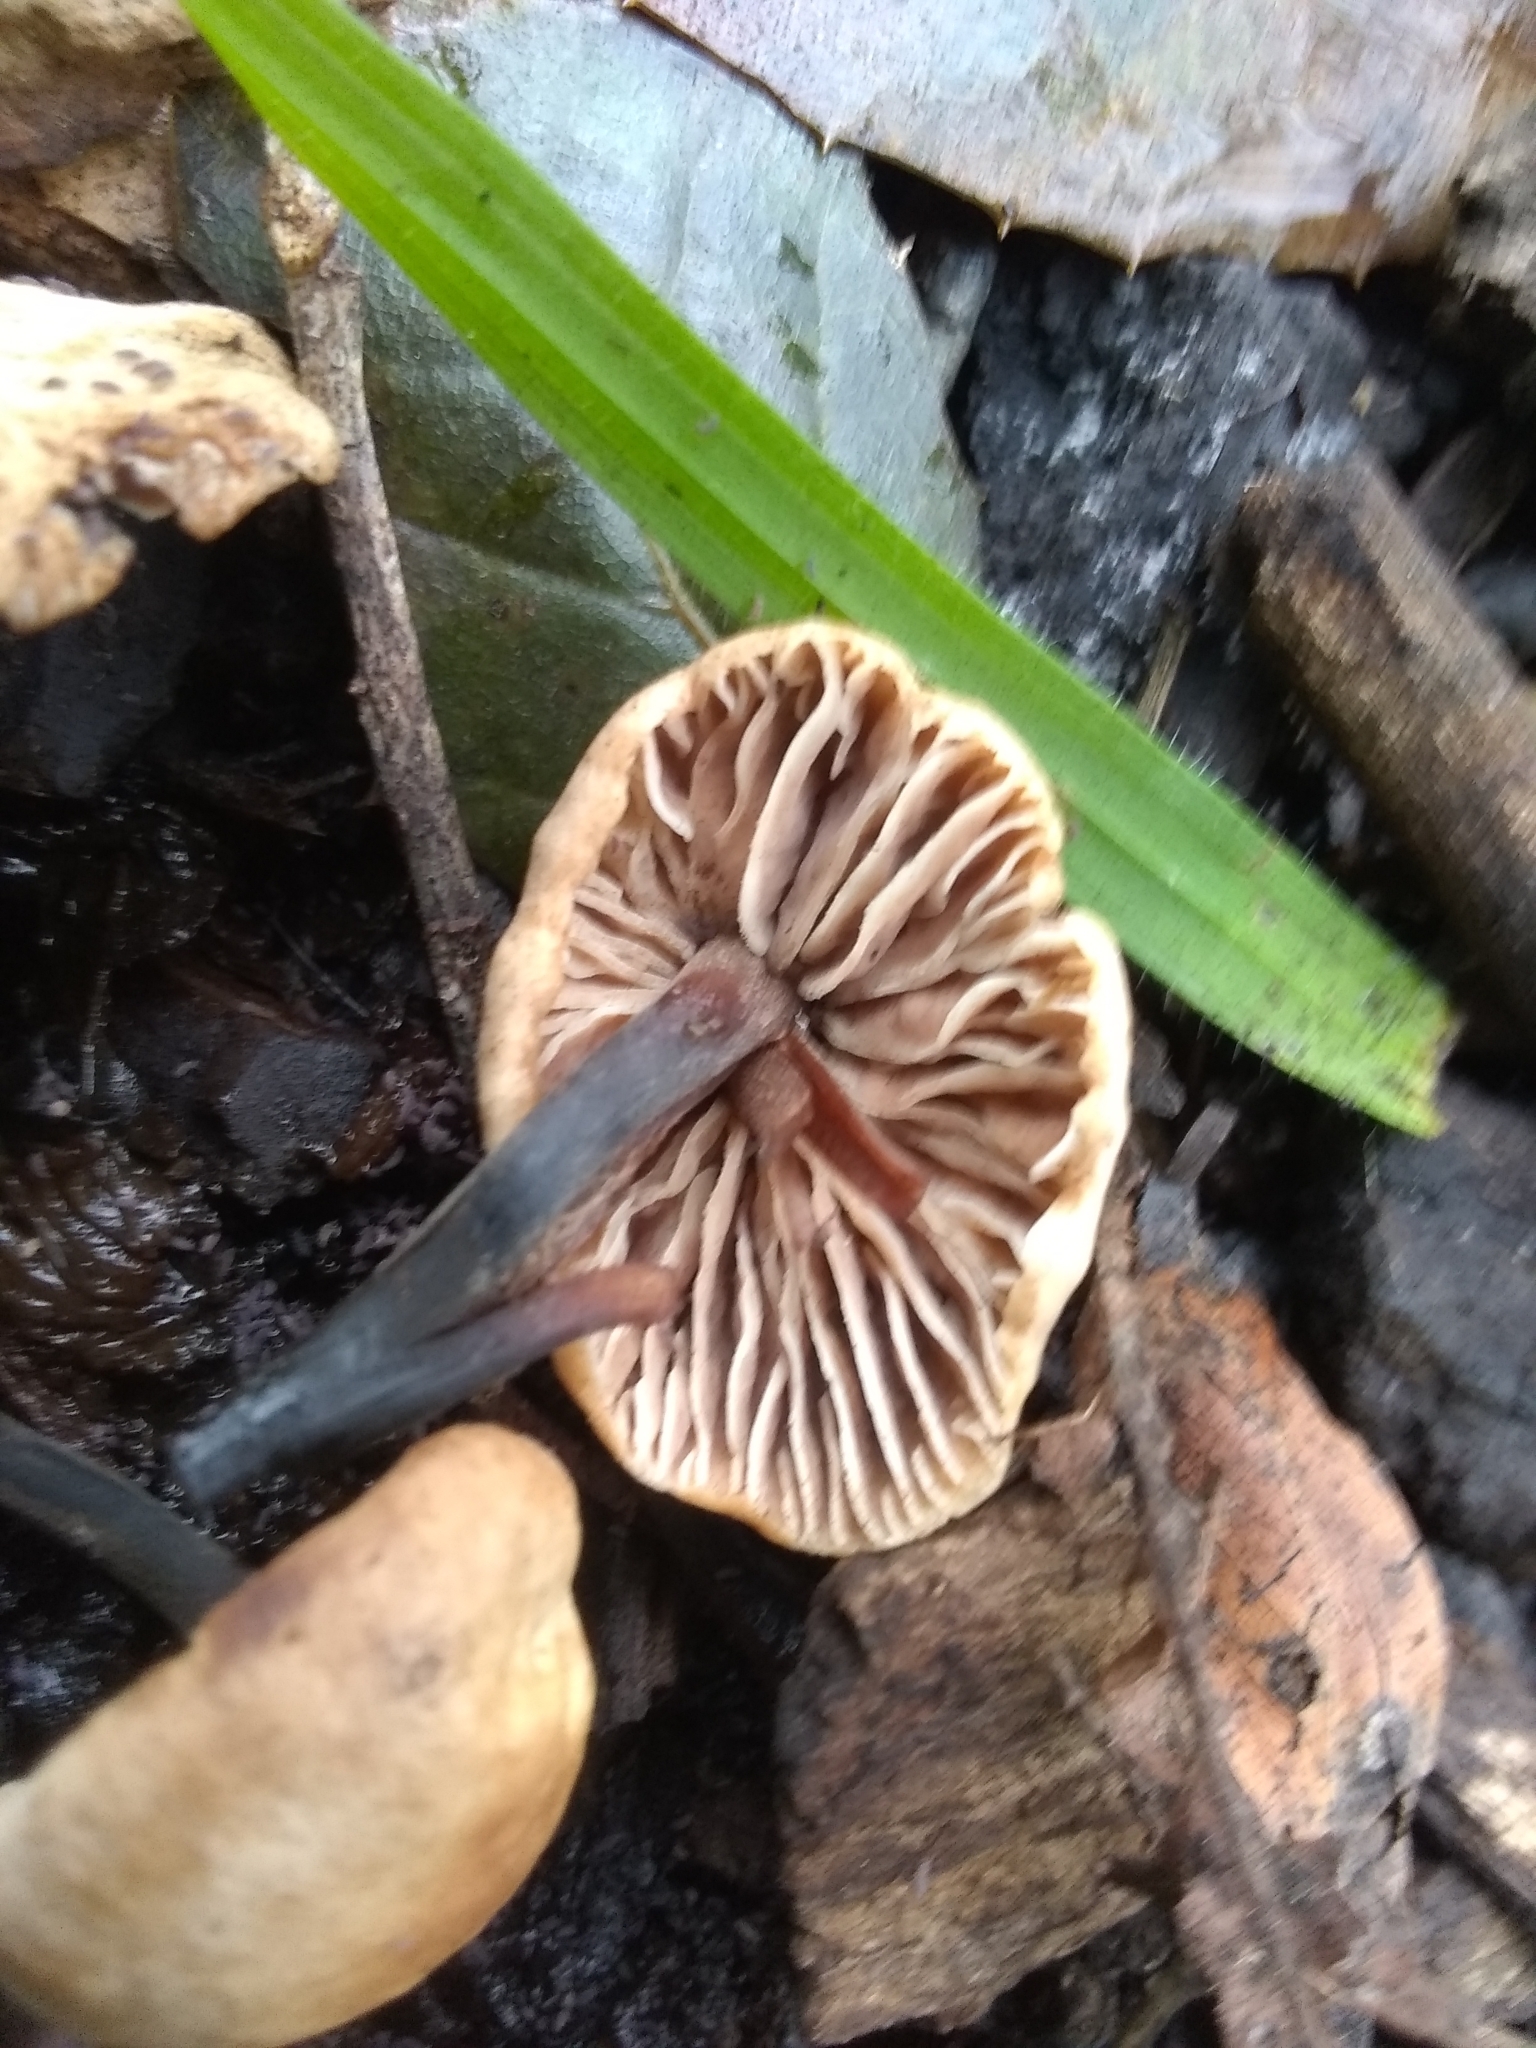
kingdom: Fungi
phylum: Basidiomycota
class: Agaricomycetes
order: Agaricales
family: Omphalotaceae
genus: Gymnopus
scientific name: Gymnopus brassicolens
